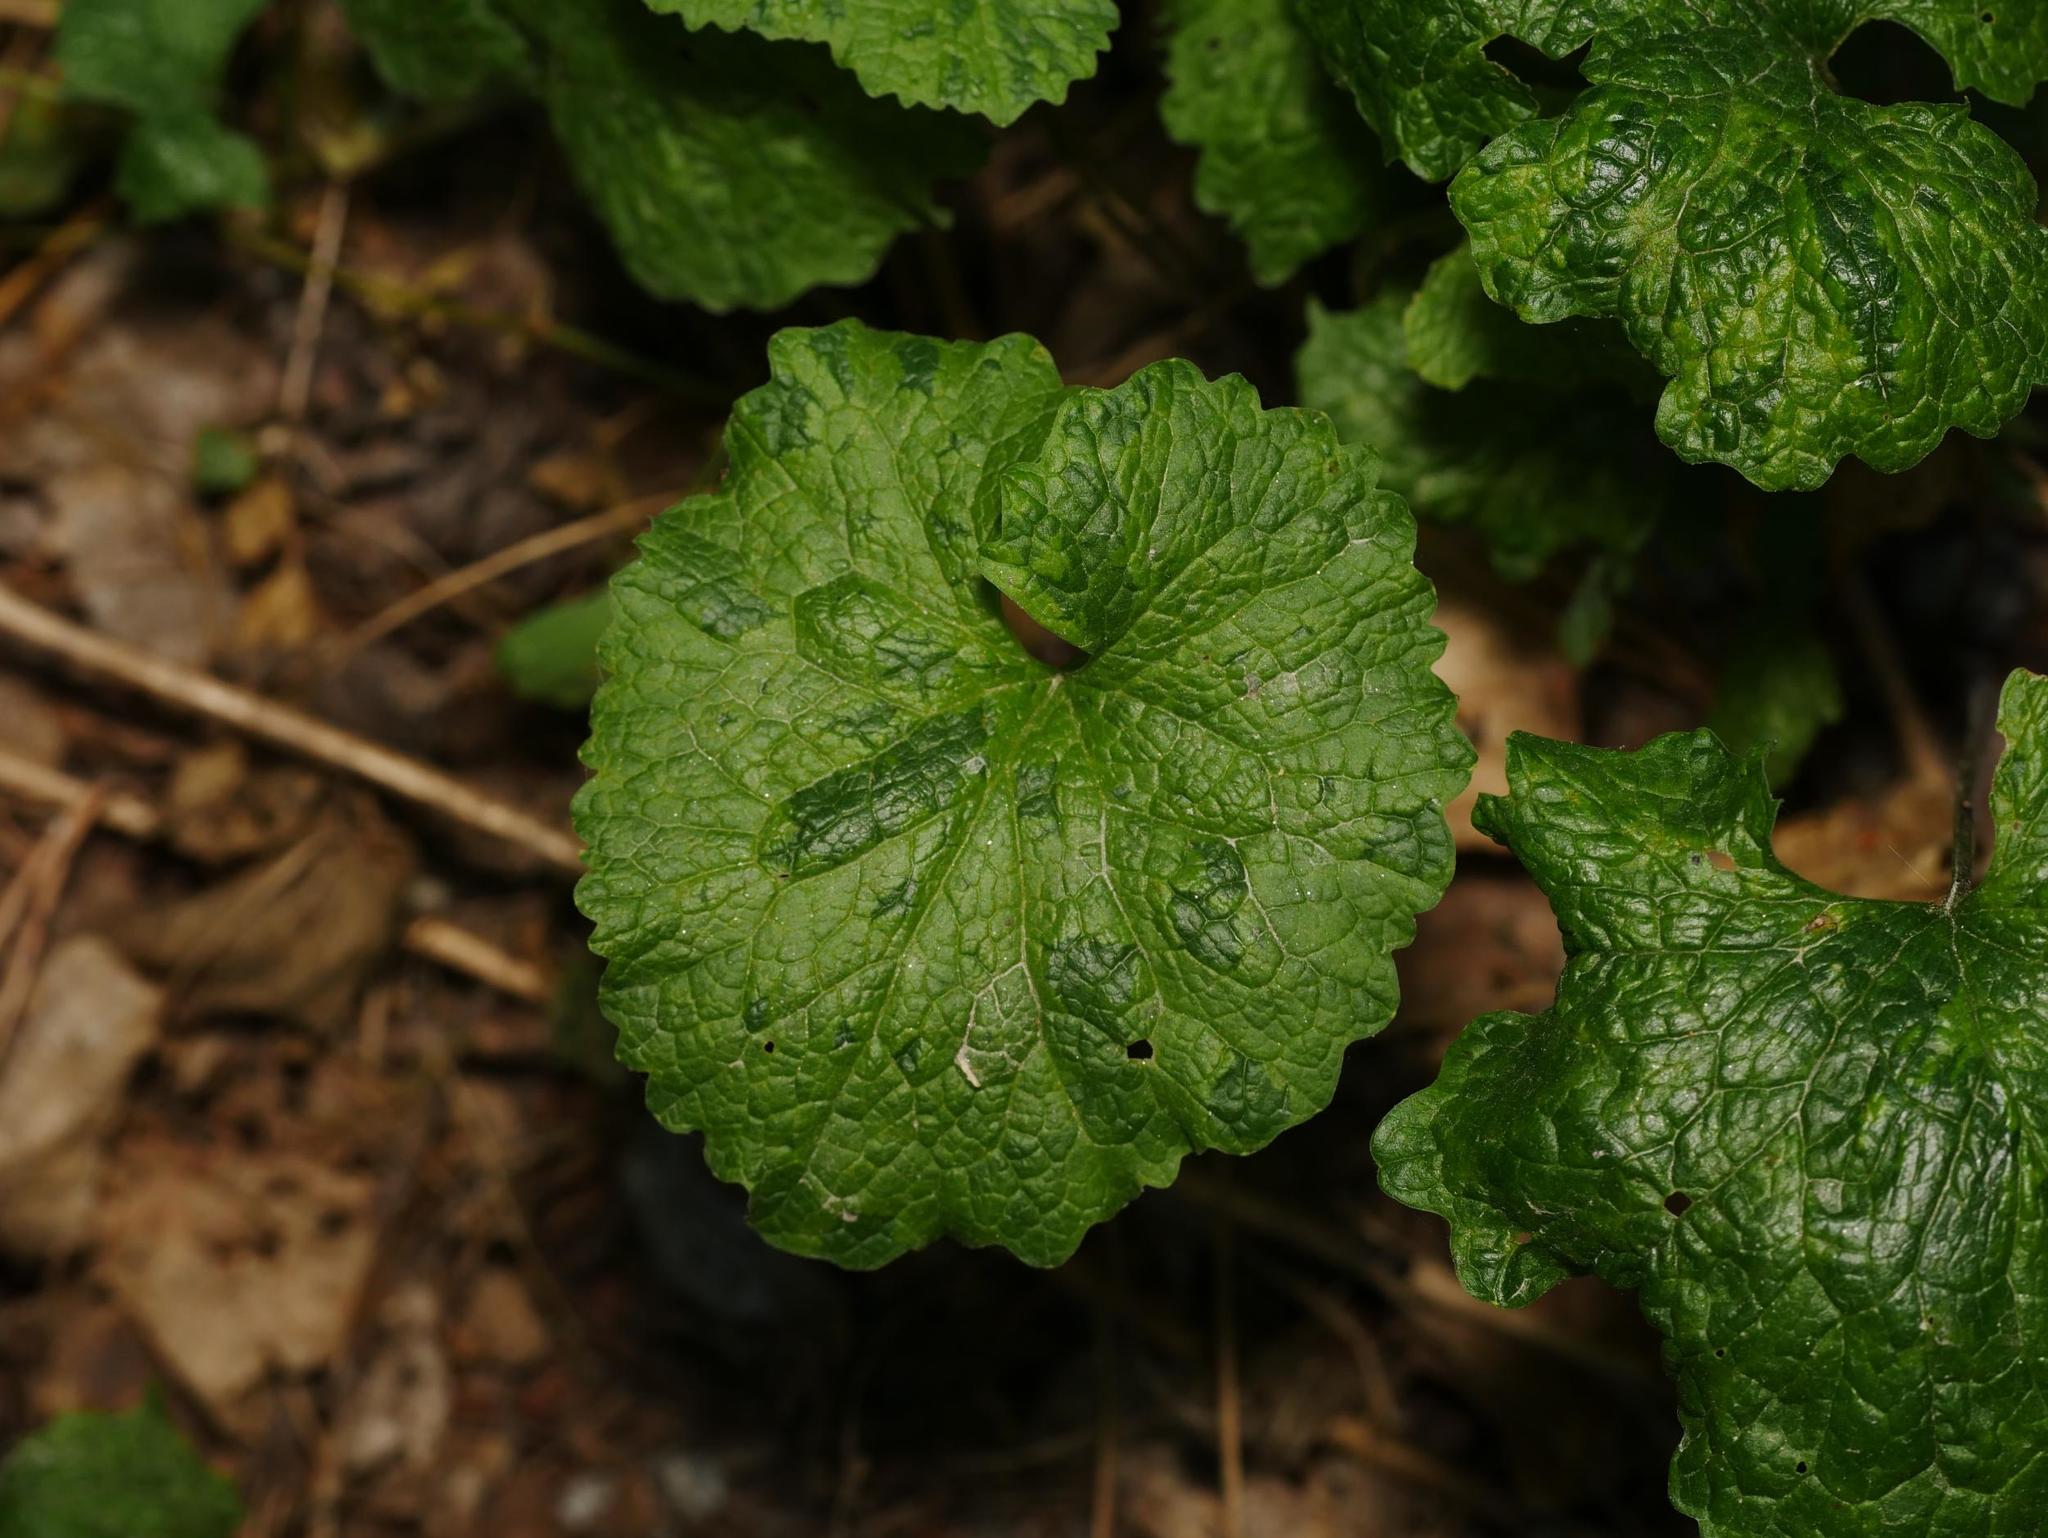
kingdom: Plantae
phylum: Tracheophyta
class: Magnoliopsida
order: Brassicales
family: Brassicaceae
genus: Alliaria
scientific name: Alliaria petiolata
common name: Garlic mustard
